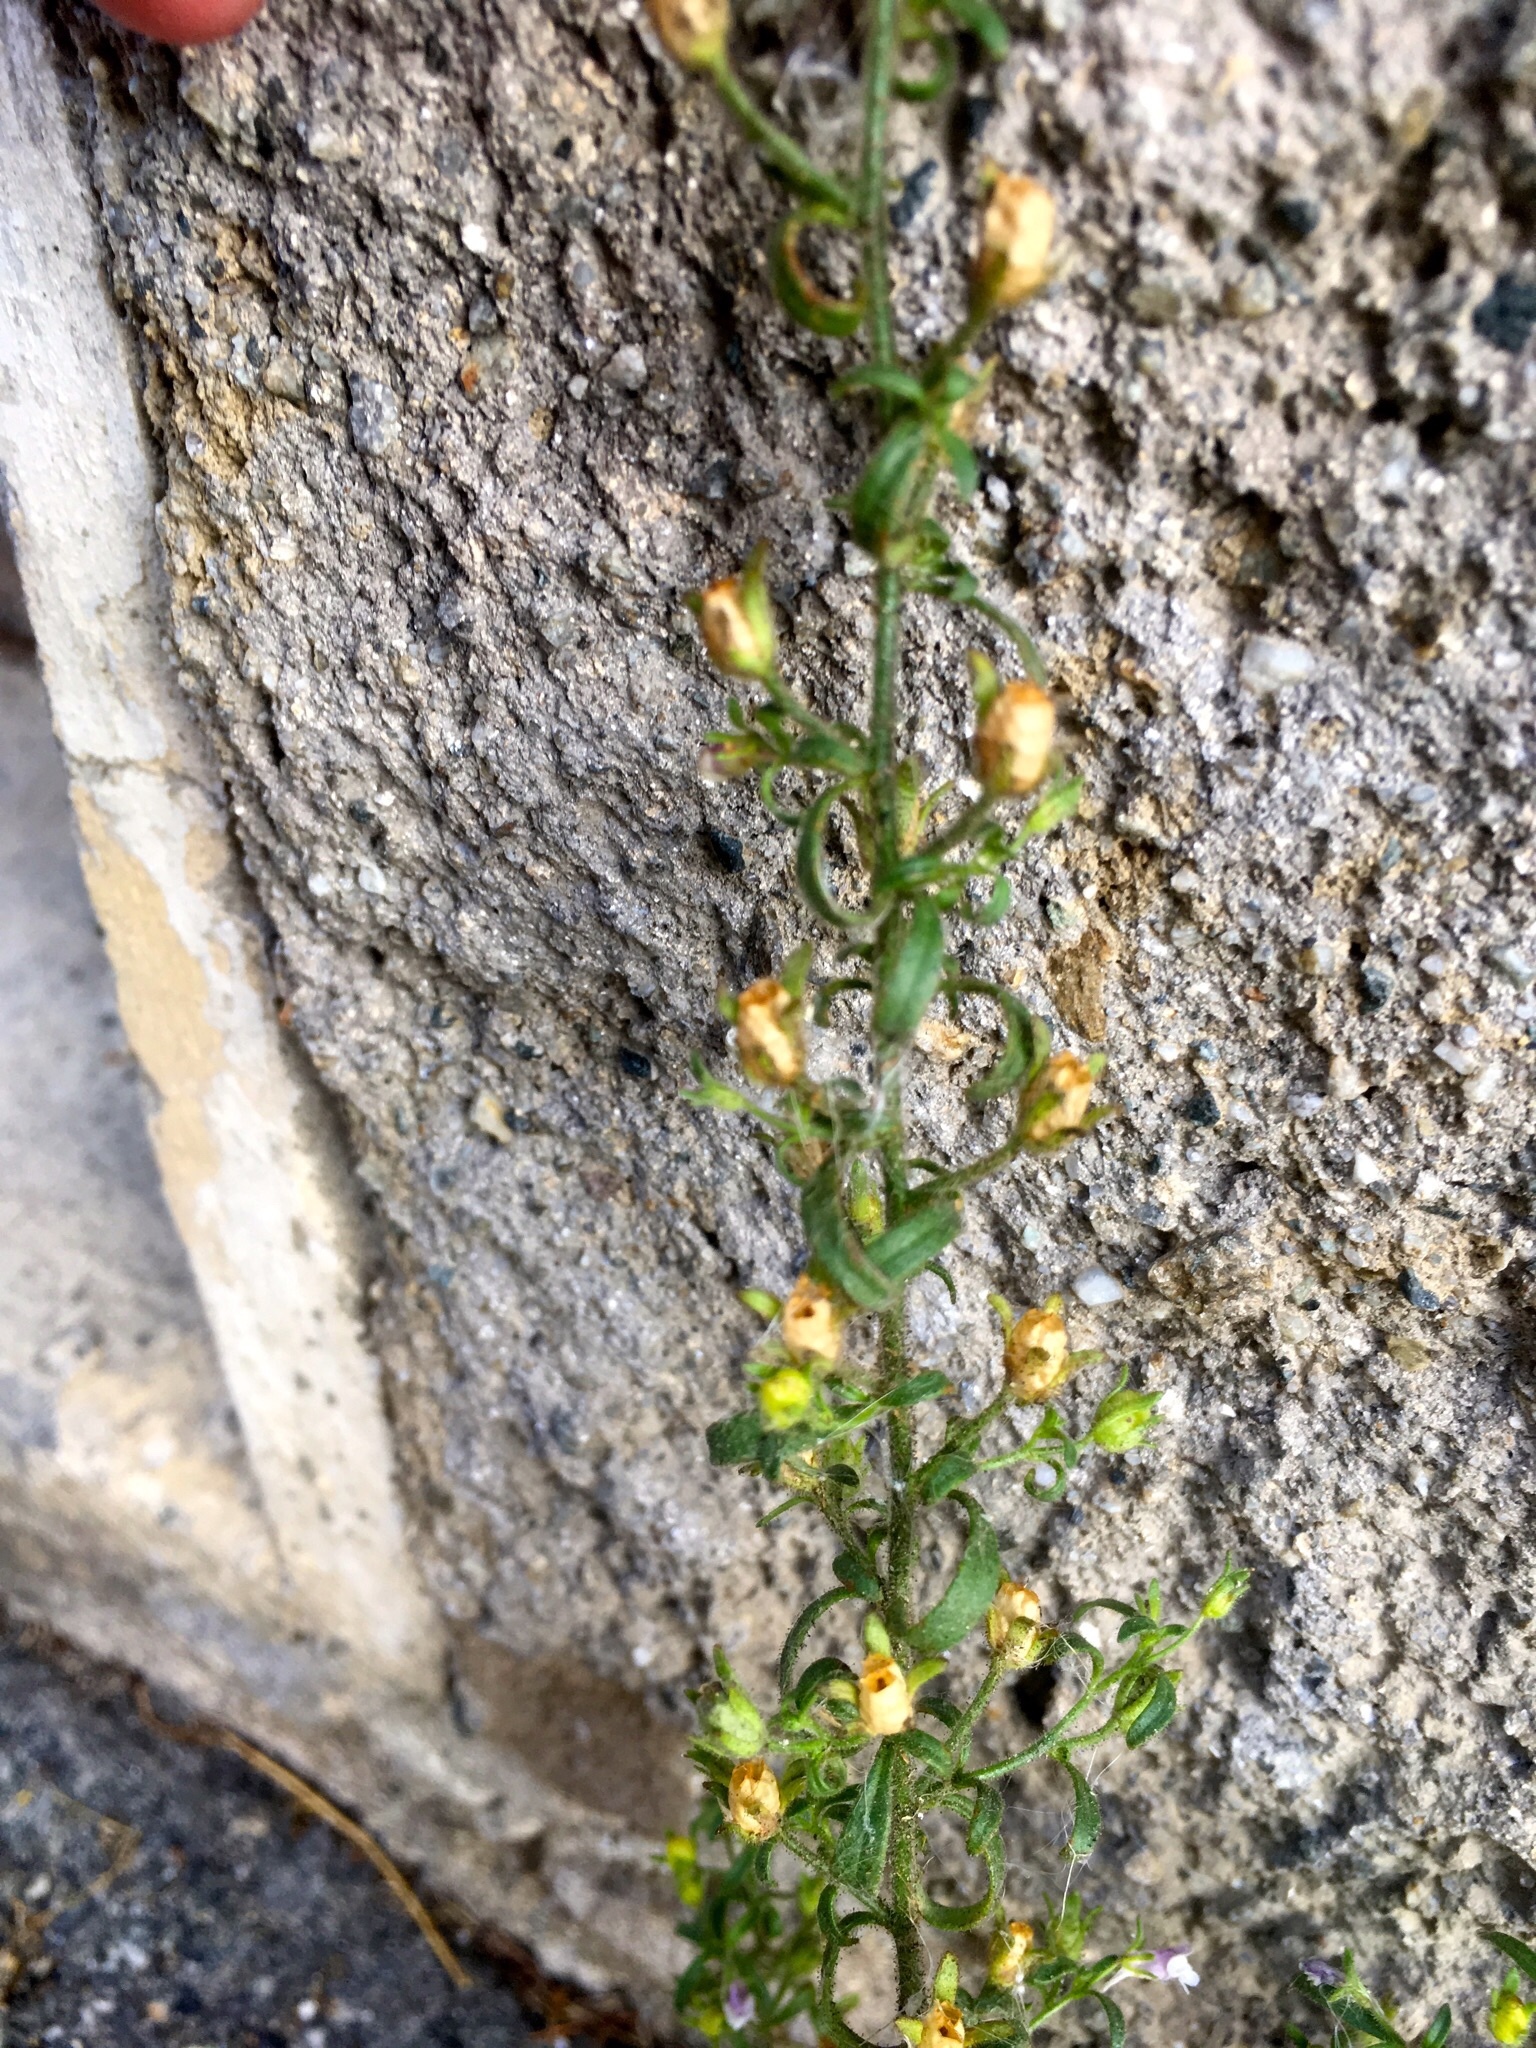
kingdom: Plantae
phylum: Tracheophyta
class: Magnoliopsida
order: Lamiales
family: Plantaginaceae
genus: Chaenorhinum
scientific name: Chaenorhinum minus
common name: Dwarf snapdragon
